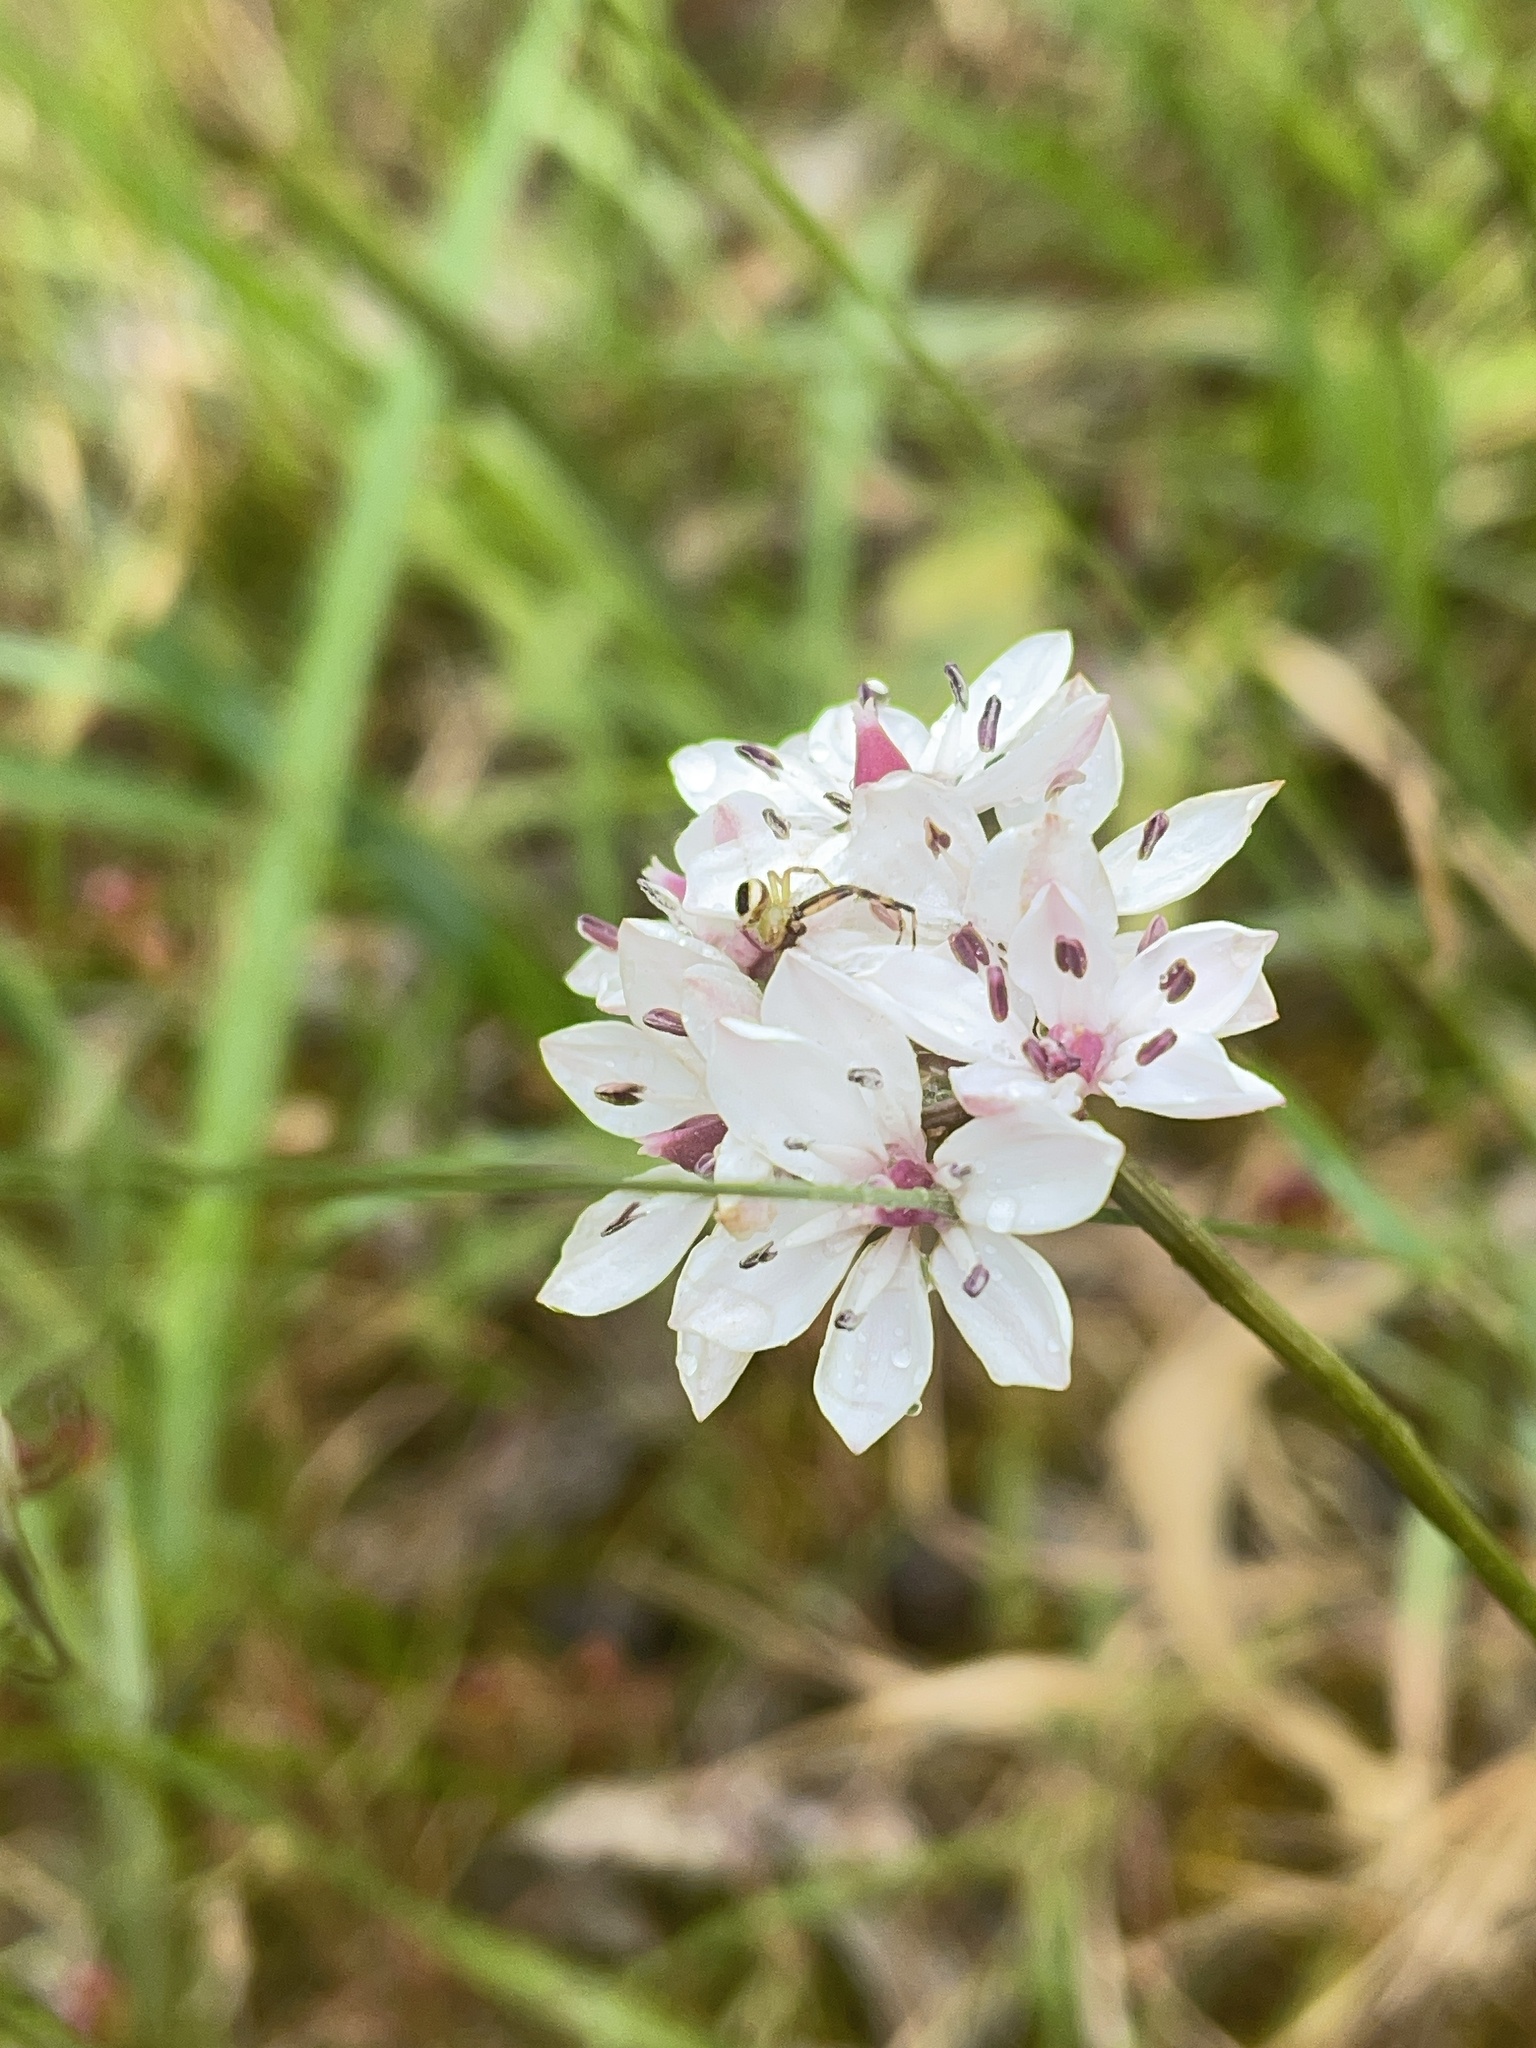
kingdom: Plantae
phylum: Tracheophyta
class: Liliopsida
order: Liliales
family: Colchicaceae
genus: Burchardia
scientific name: Burchardia umbellata
